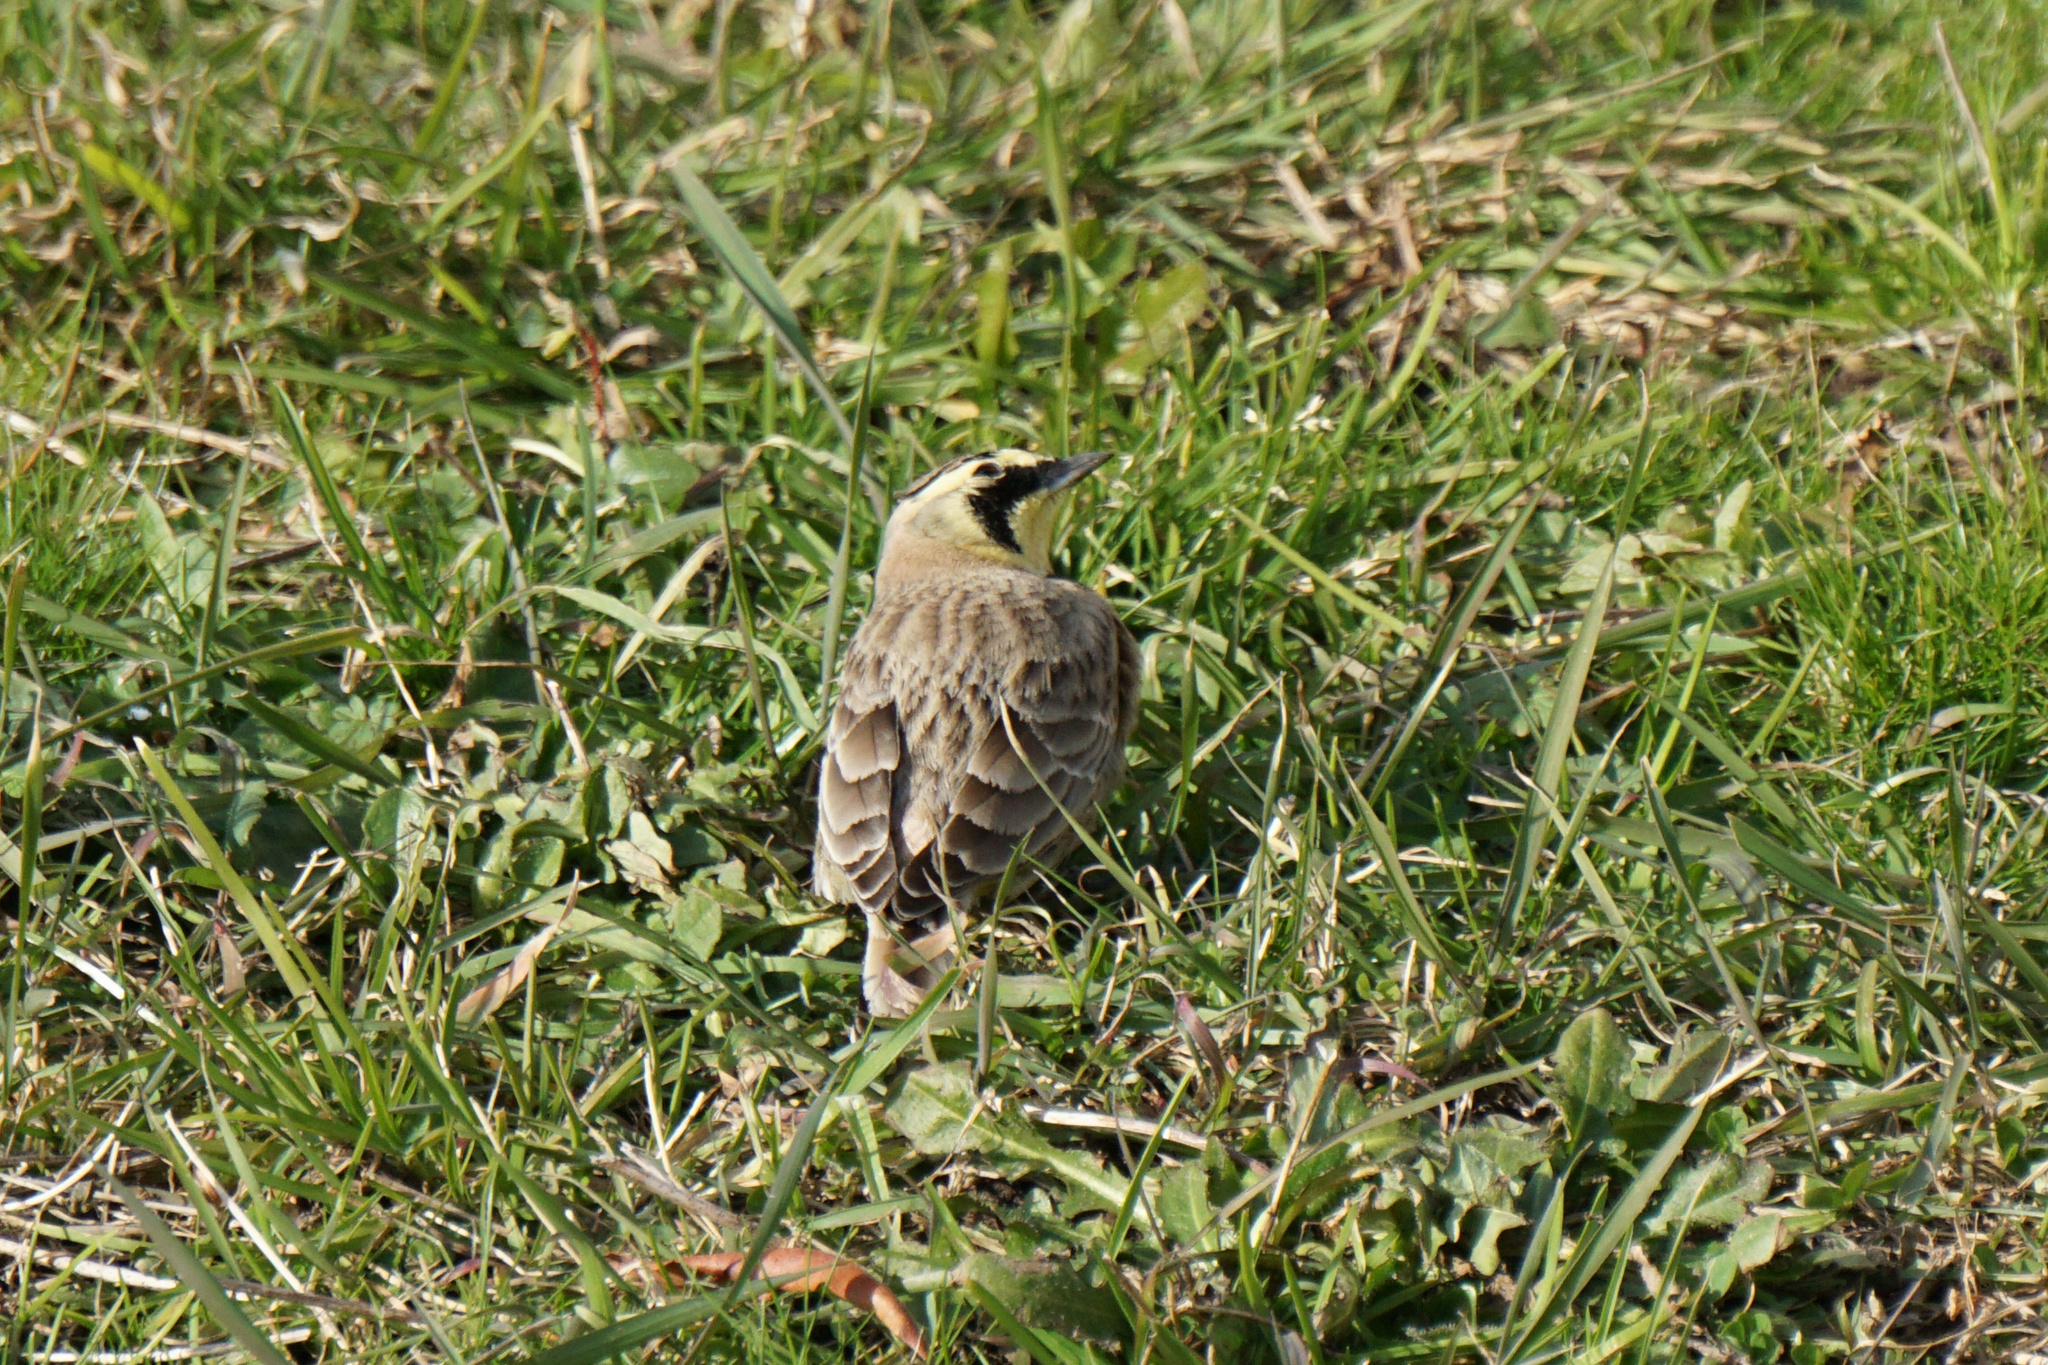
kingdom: Animalia
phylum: Chordata
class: Aves
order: Passeriformes
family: Alaudidae
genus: Eremophila
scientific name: Eremophila alpestris
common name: Horned lark
